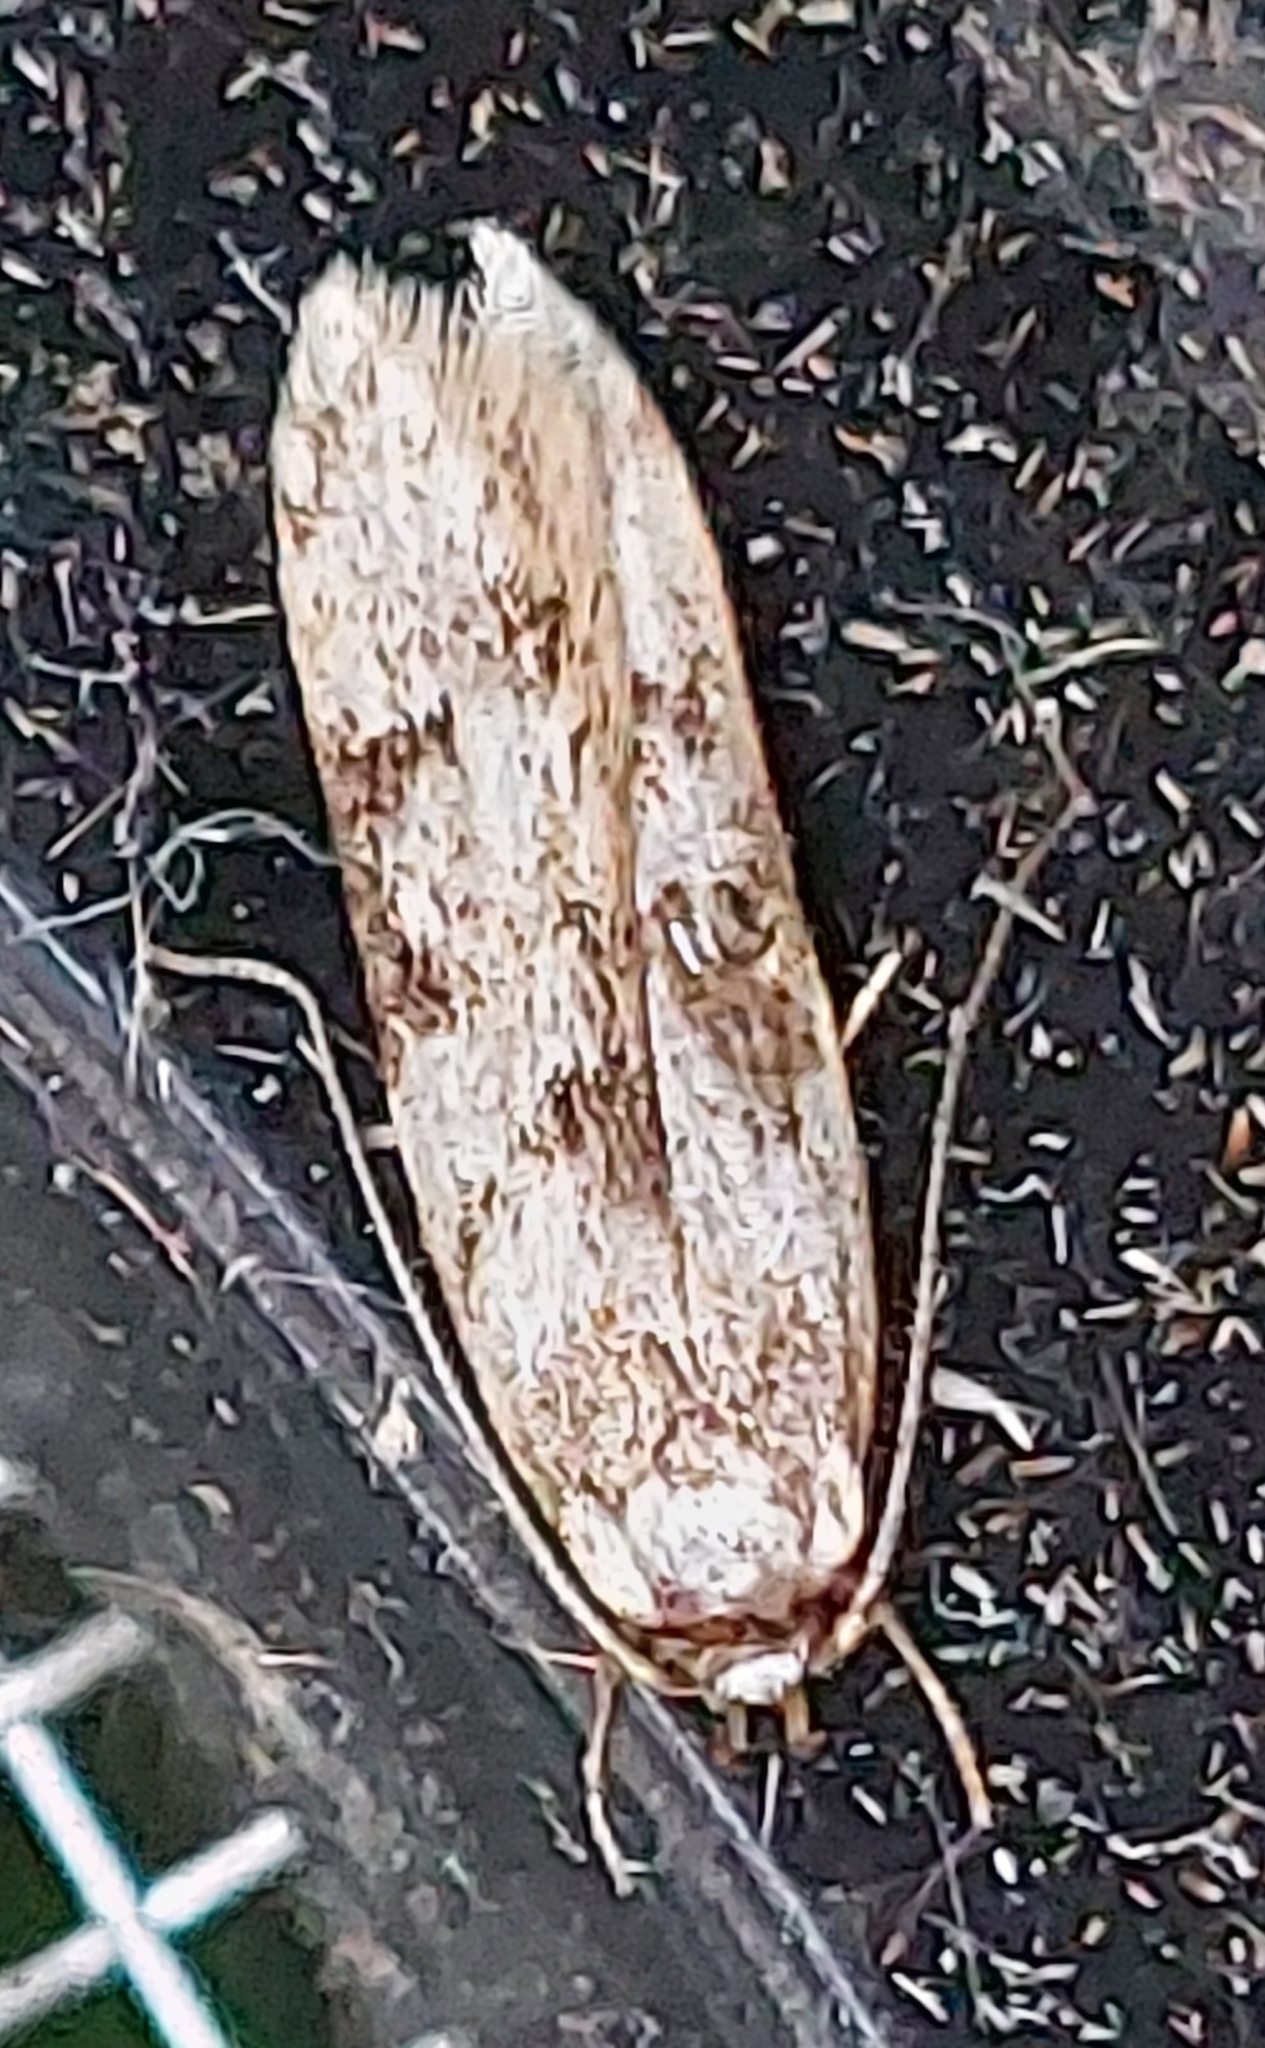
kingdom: Animalia
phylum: Arthropoda
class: Insecta
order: Lepidoptera
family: Oecophoridae
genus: Endrosis
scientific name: Endrosis sarcitrella
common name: White-shouldered house moth
